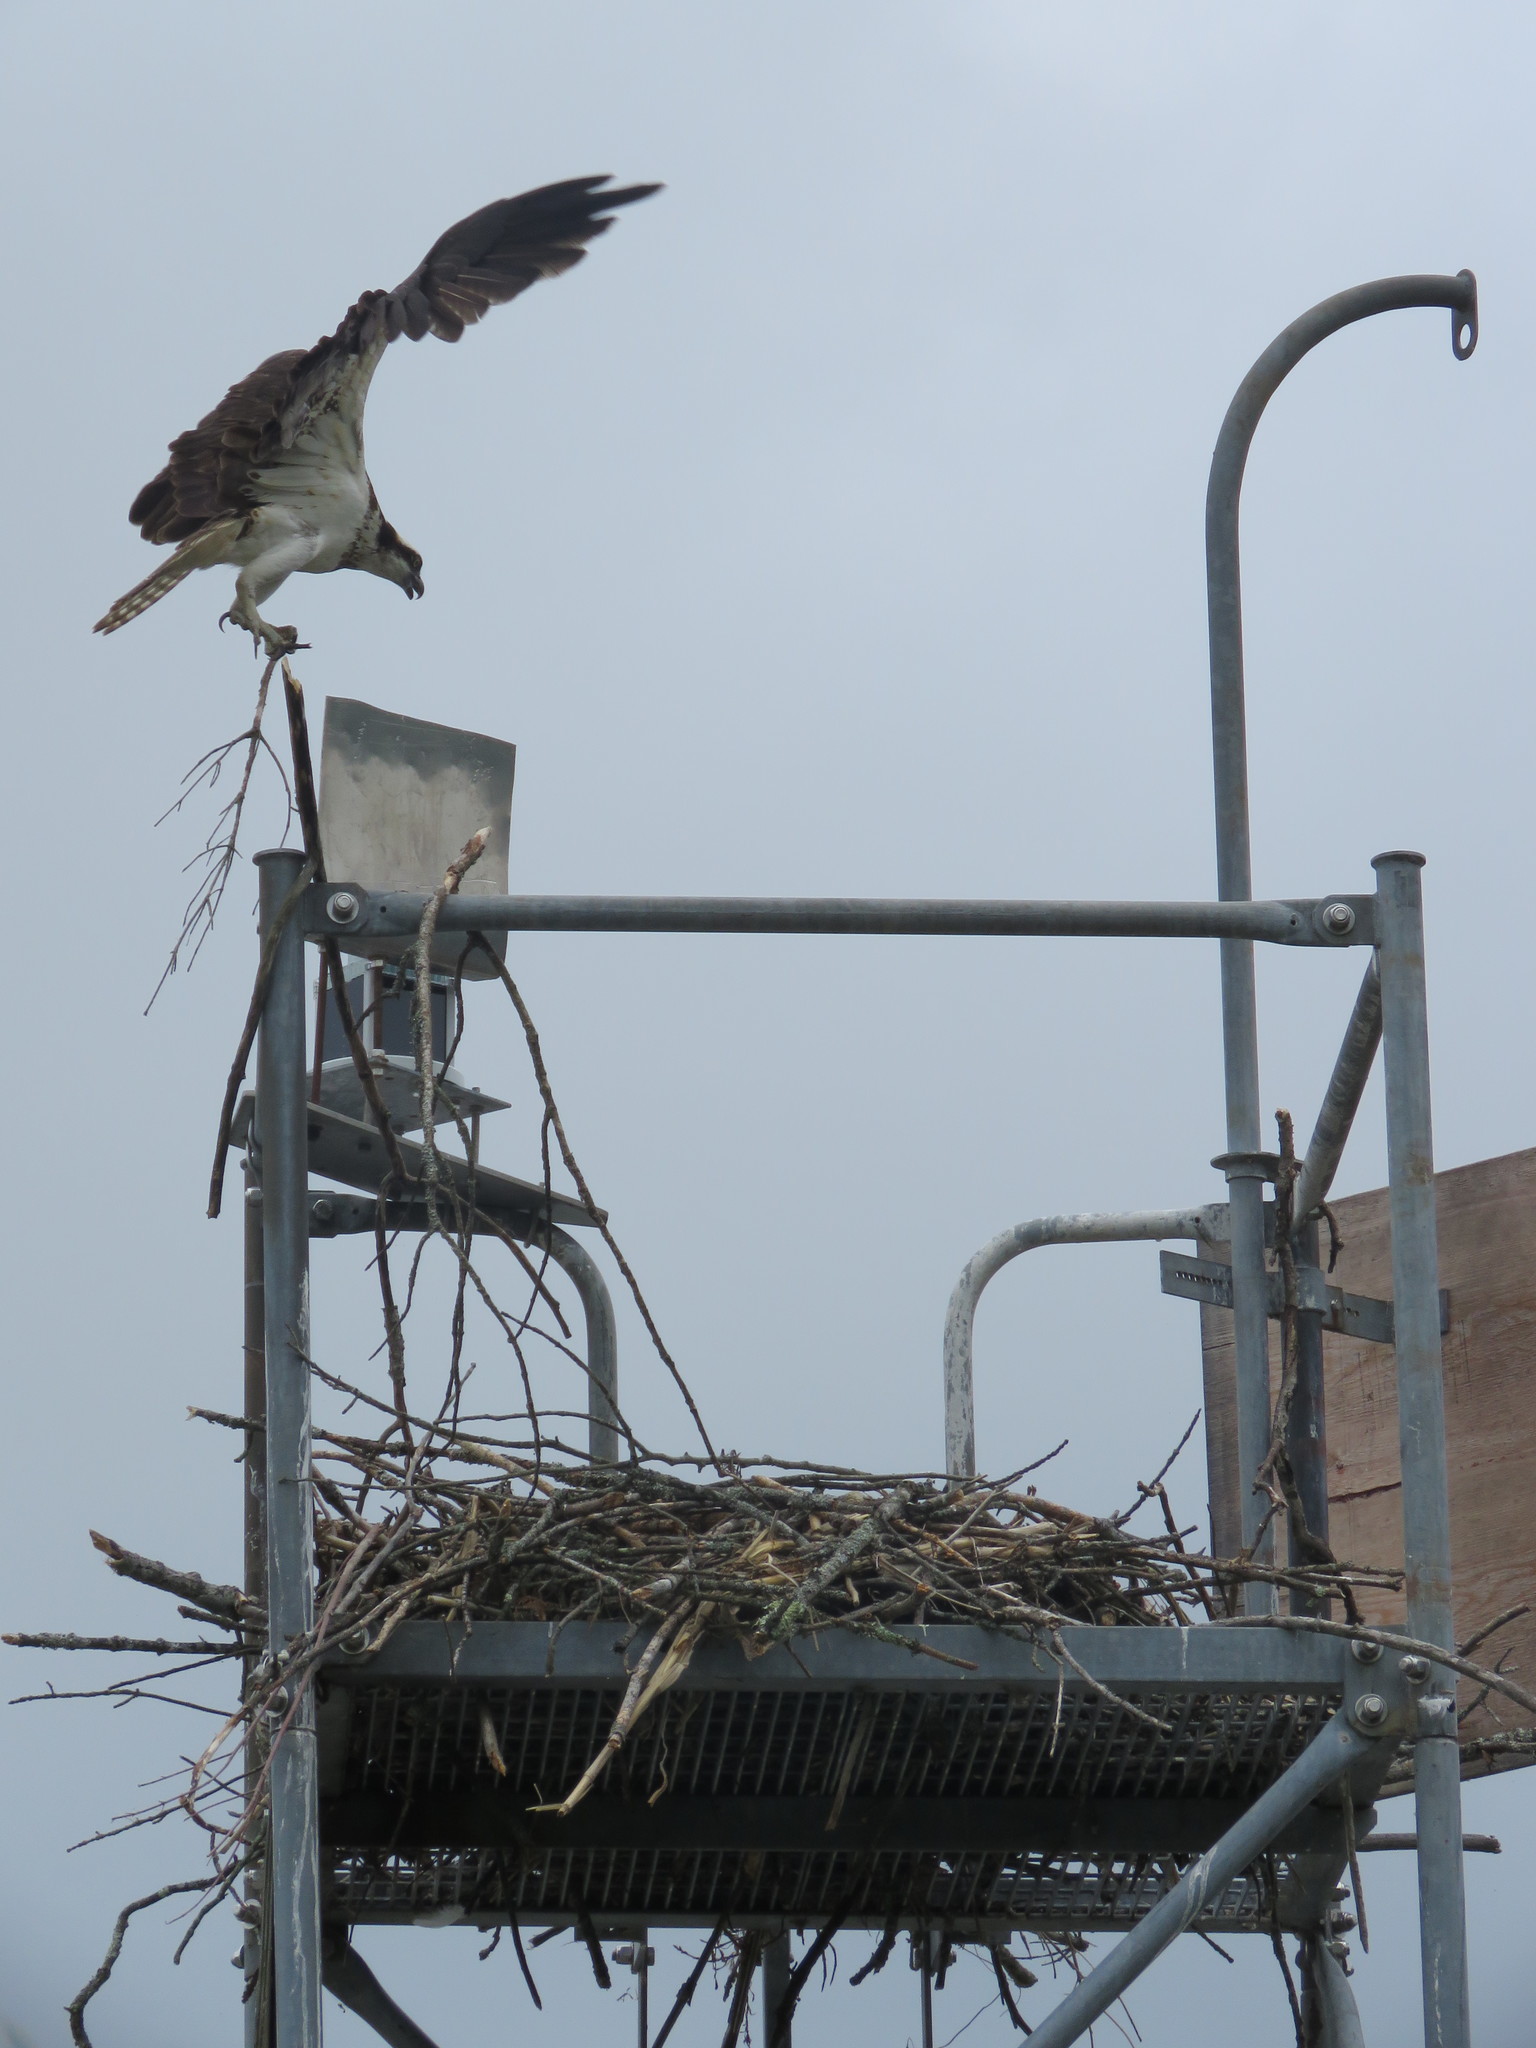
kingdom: Animalia
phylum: Chordata
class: Aves
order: Accipitriformes
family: Pandionidae
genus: Pandion
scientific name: Pandion haliaetus
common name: Osprey
